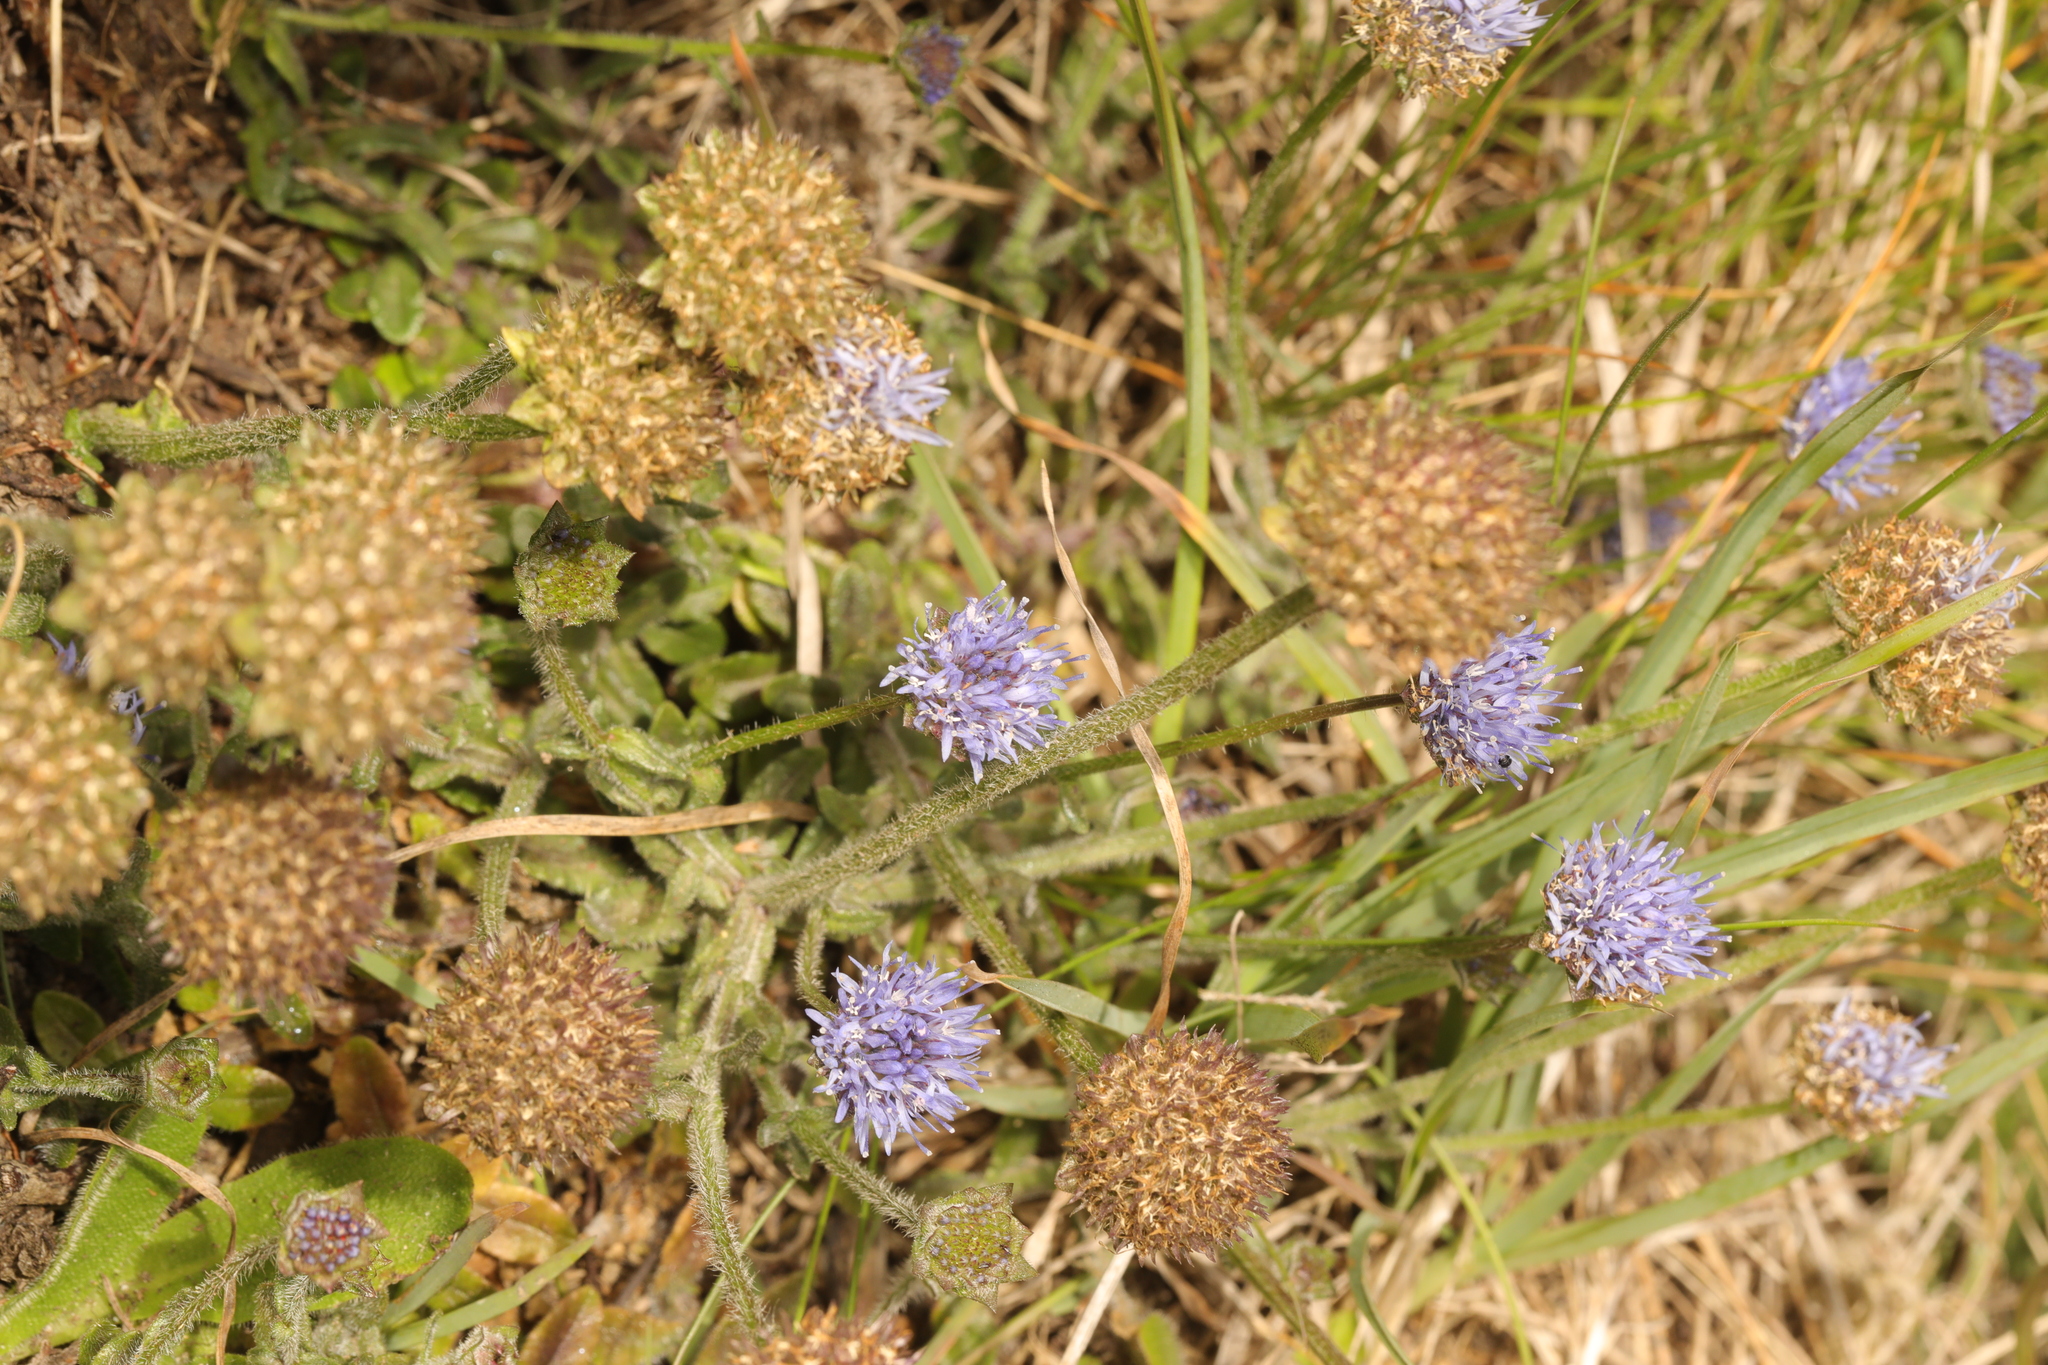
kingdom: Plantae
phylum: Tracheophyta
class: Magnoliopsida
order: Asterales
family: Campanulaceae
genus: Jasione
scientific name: Jasione montana
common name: Sheep's-bit
